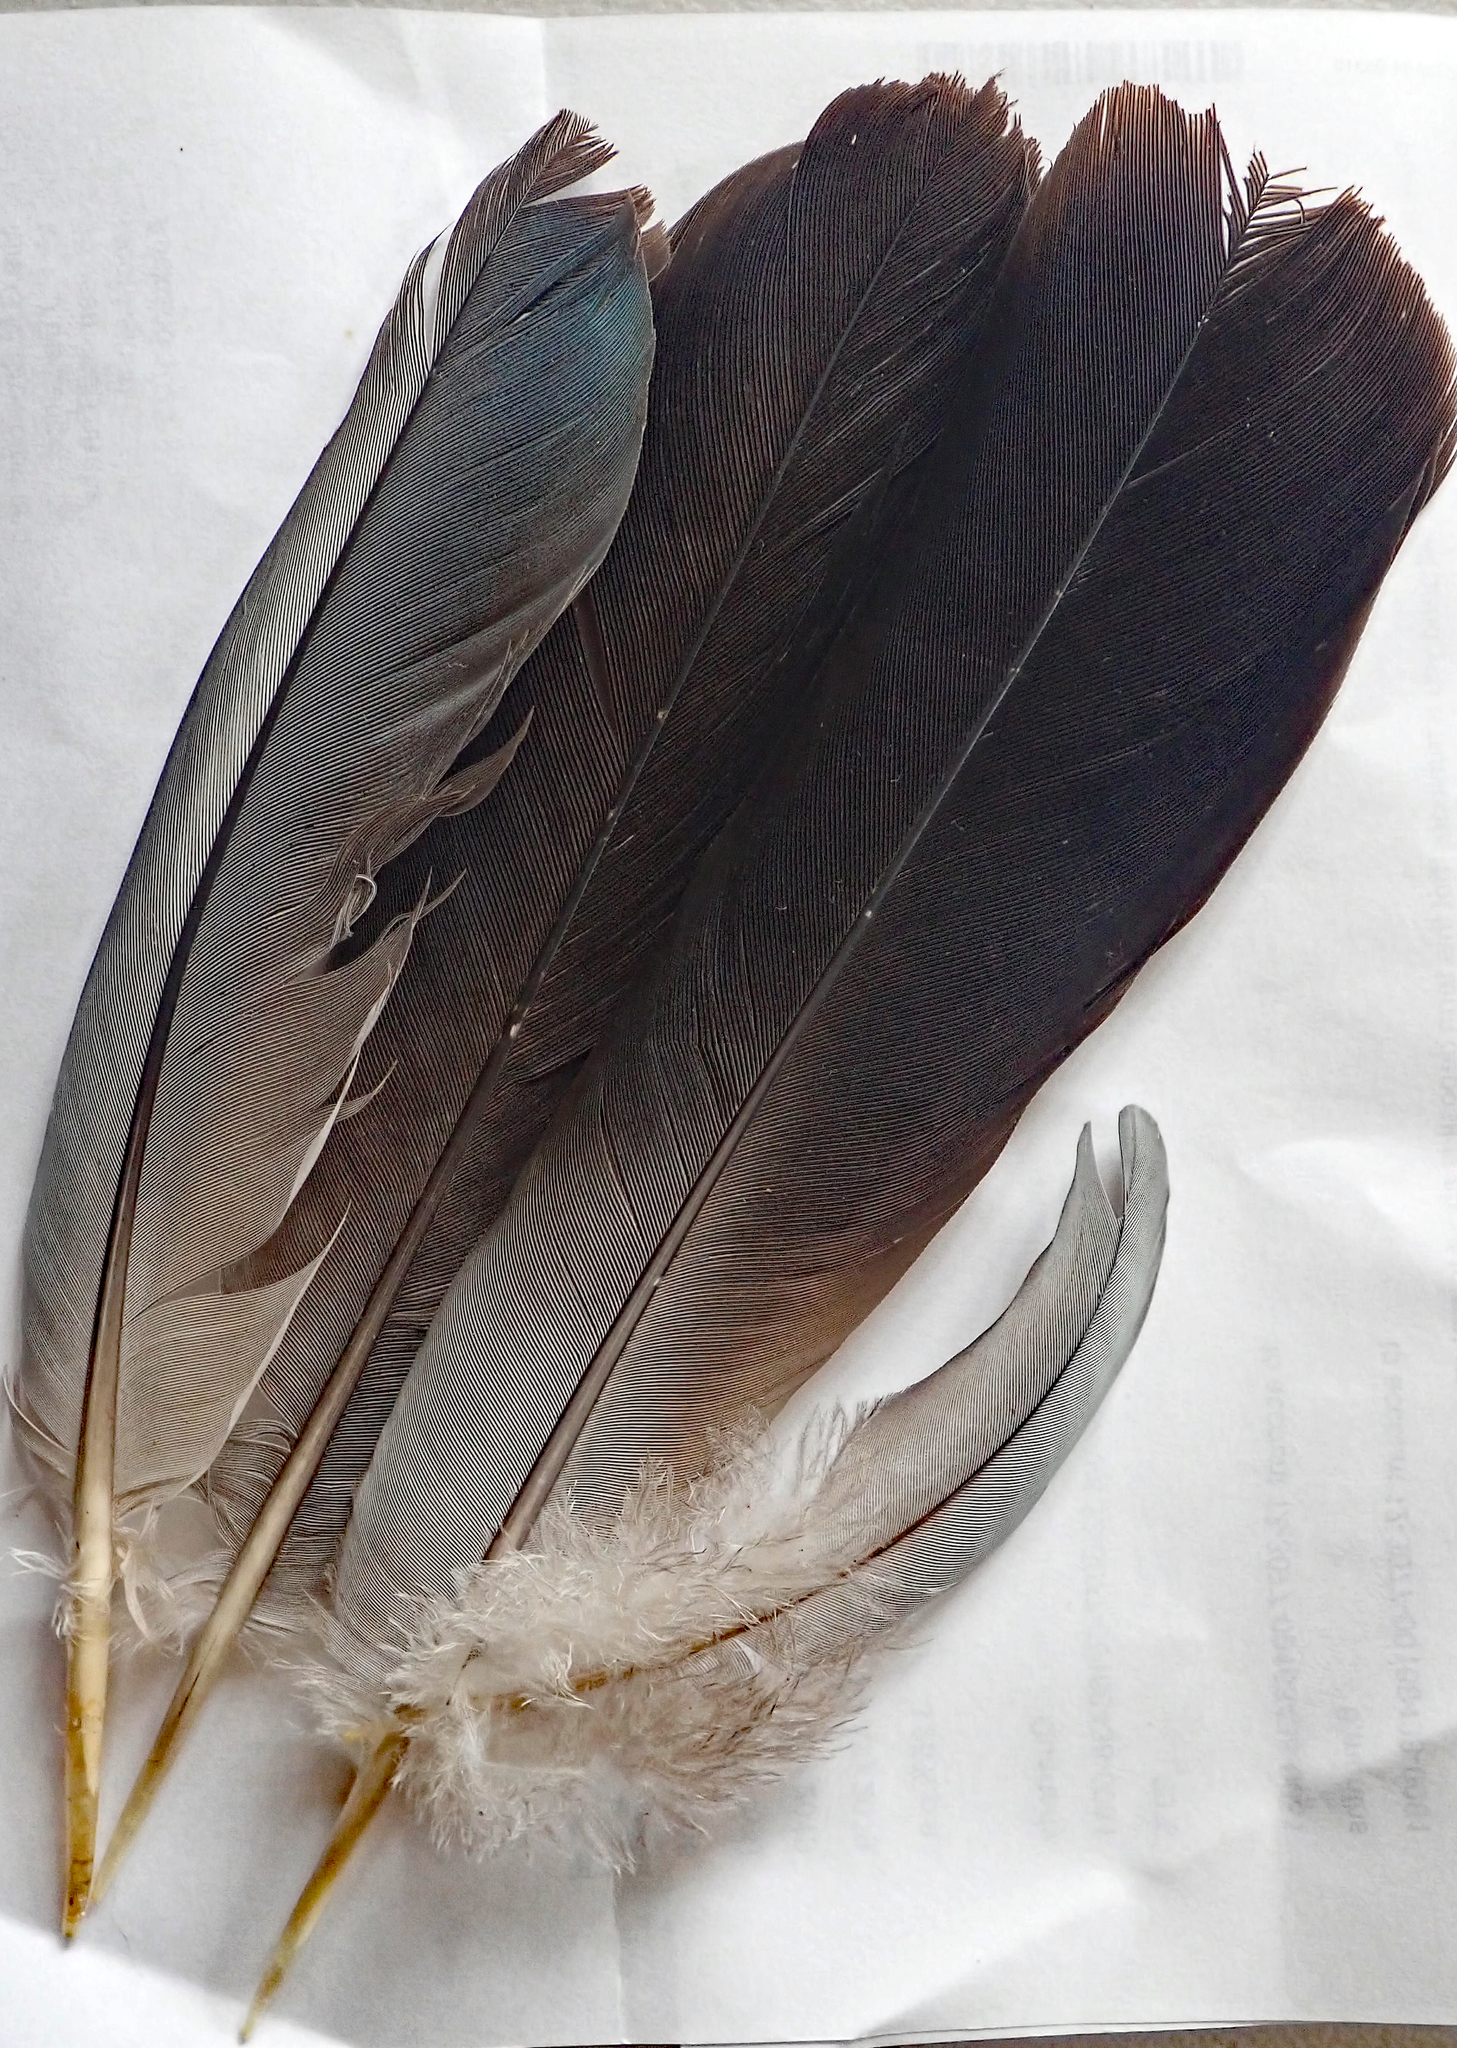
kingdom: Animalia
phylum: Chordata
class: Aves
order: Columbiformes
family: Columbidae
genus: Hemiphaga
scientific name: Hemiphaga chathamensis
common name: Chatham pigeon
